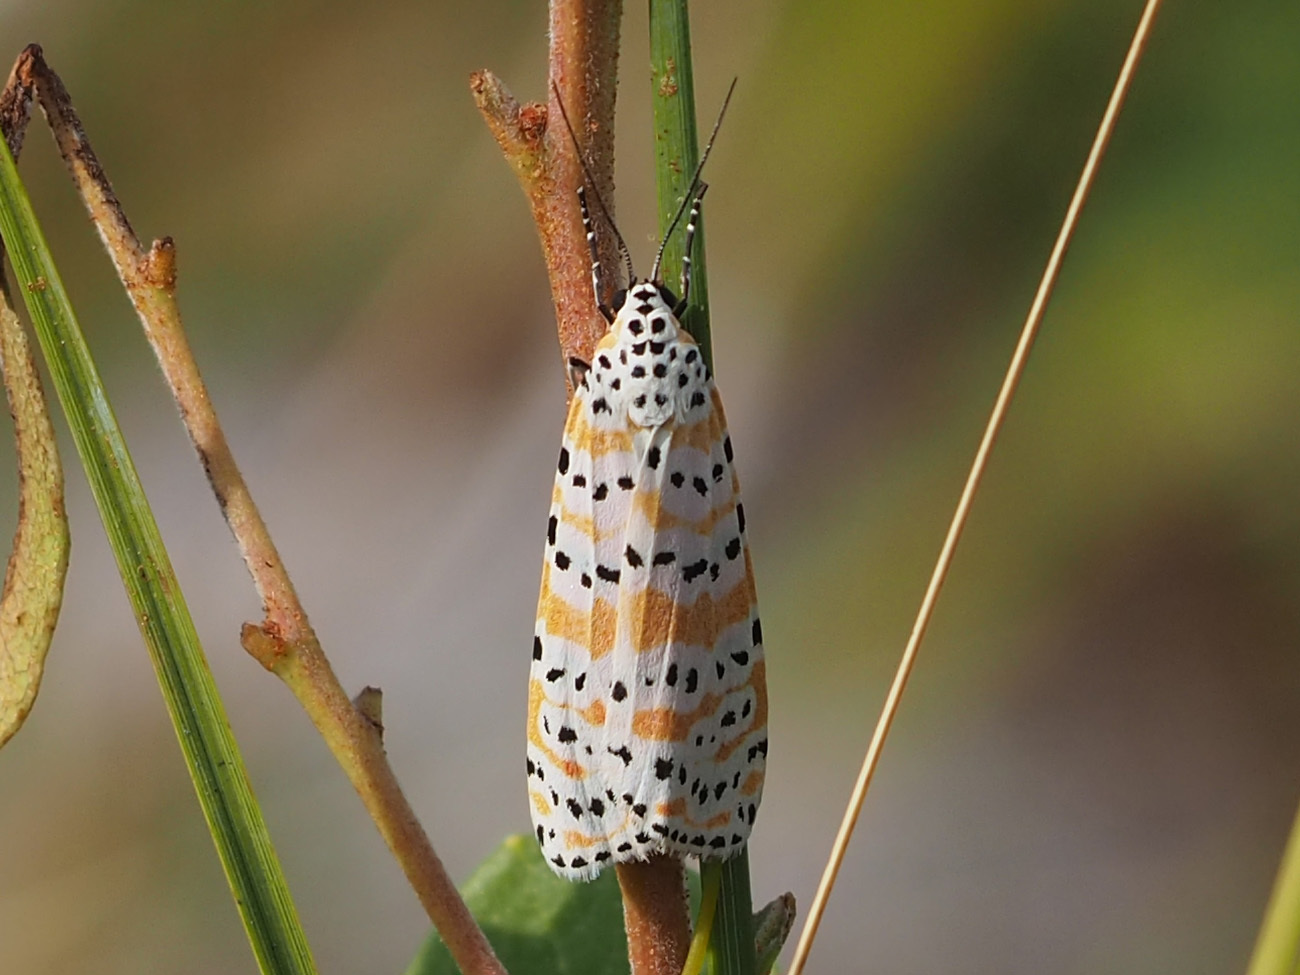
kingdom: Animalia
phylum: Arthropoda
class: Insecta
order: Lepidoptera
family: Erebidae
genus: Utetheisa
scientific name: Utetheisa ornatrix
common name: Beautiful utetheisa
